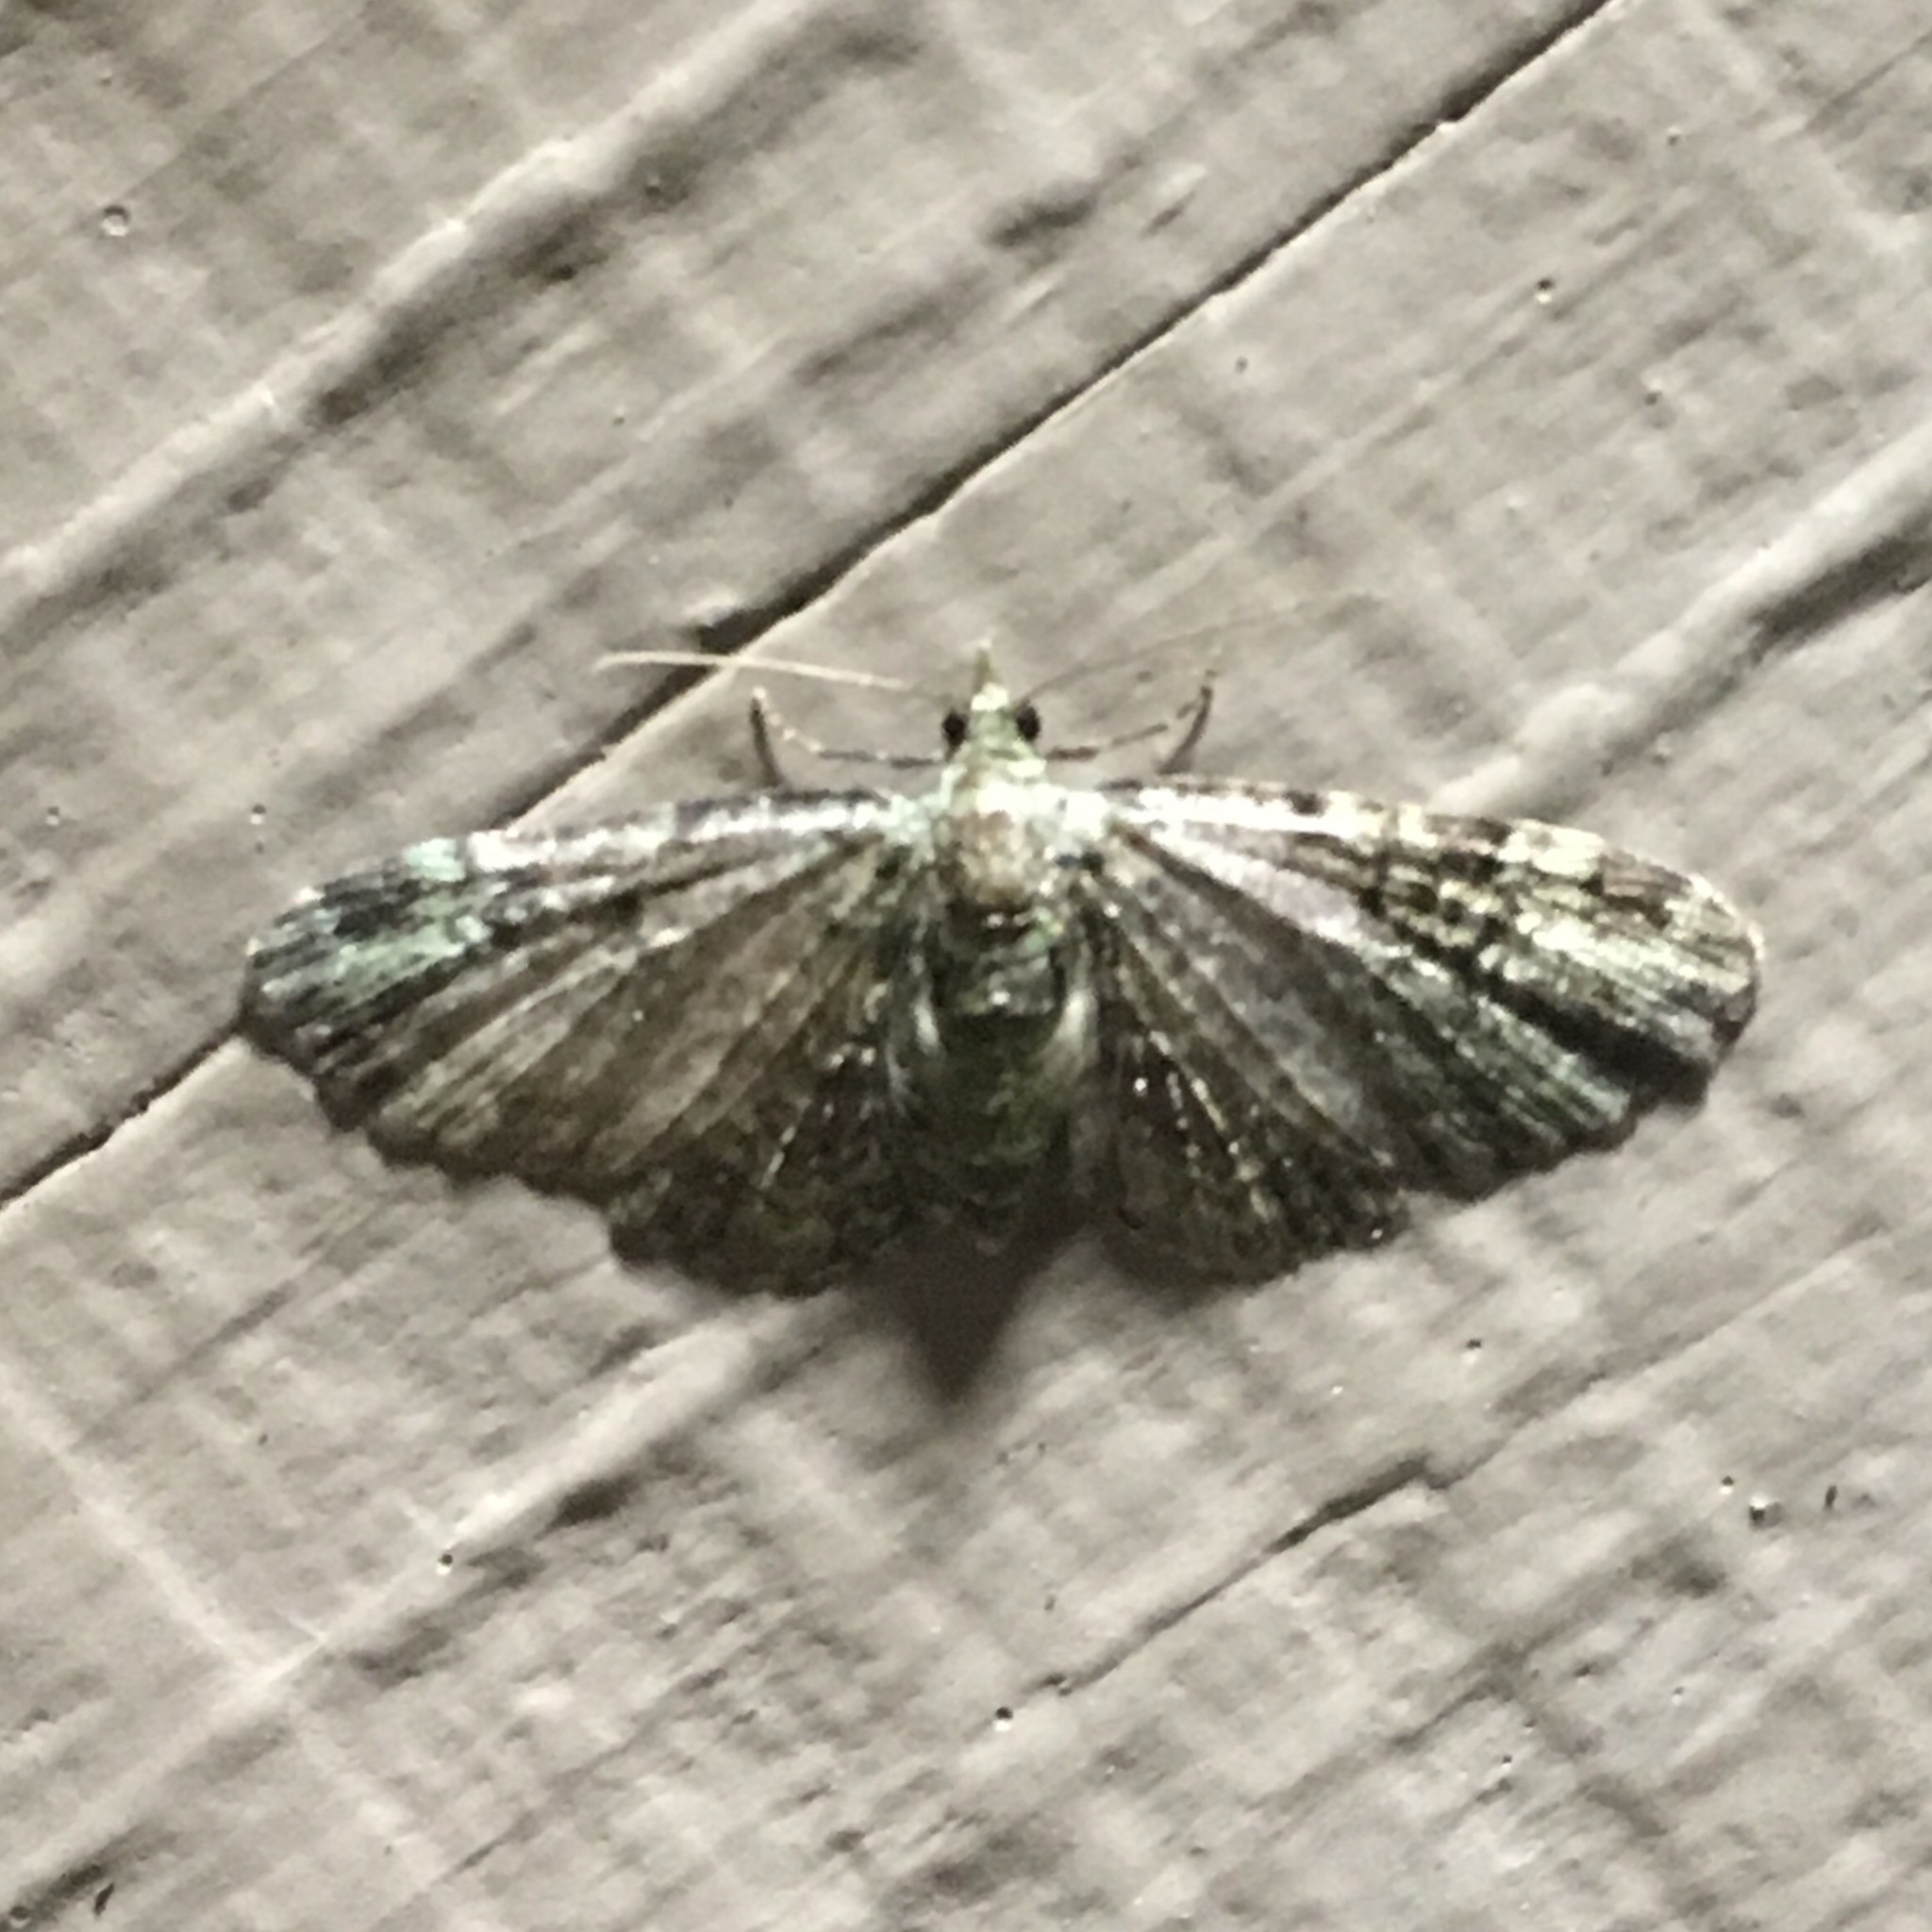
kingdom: Animalia
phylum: Arthropoda
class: Insecta
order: Lepidoptera
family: Geometridae
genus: Pasiphila
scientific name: Pasiphila rectangulata
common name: Green pug
